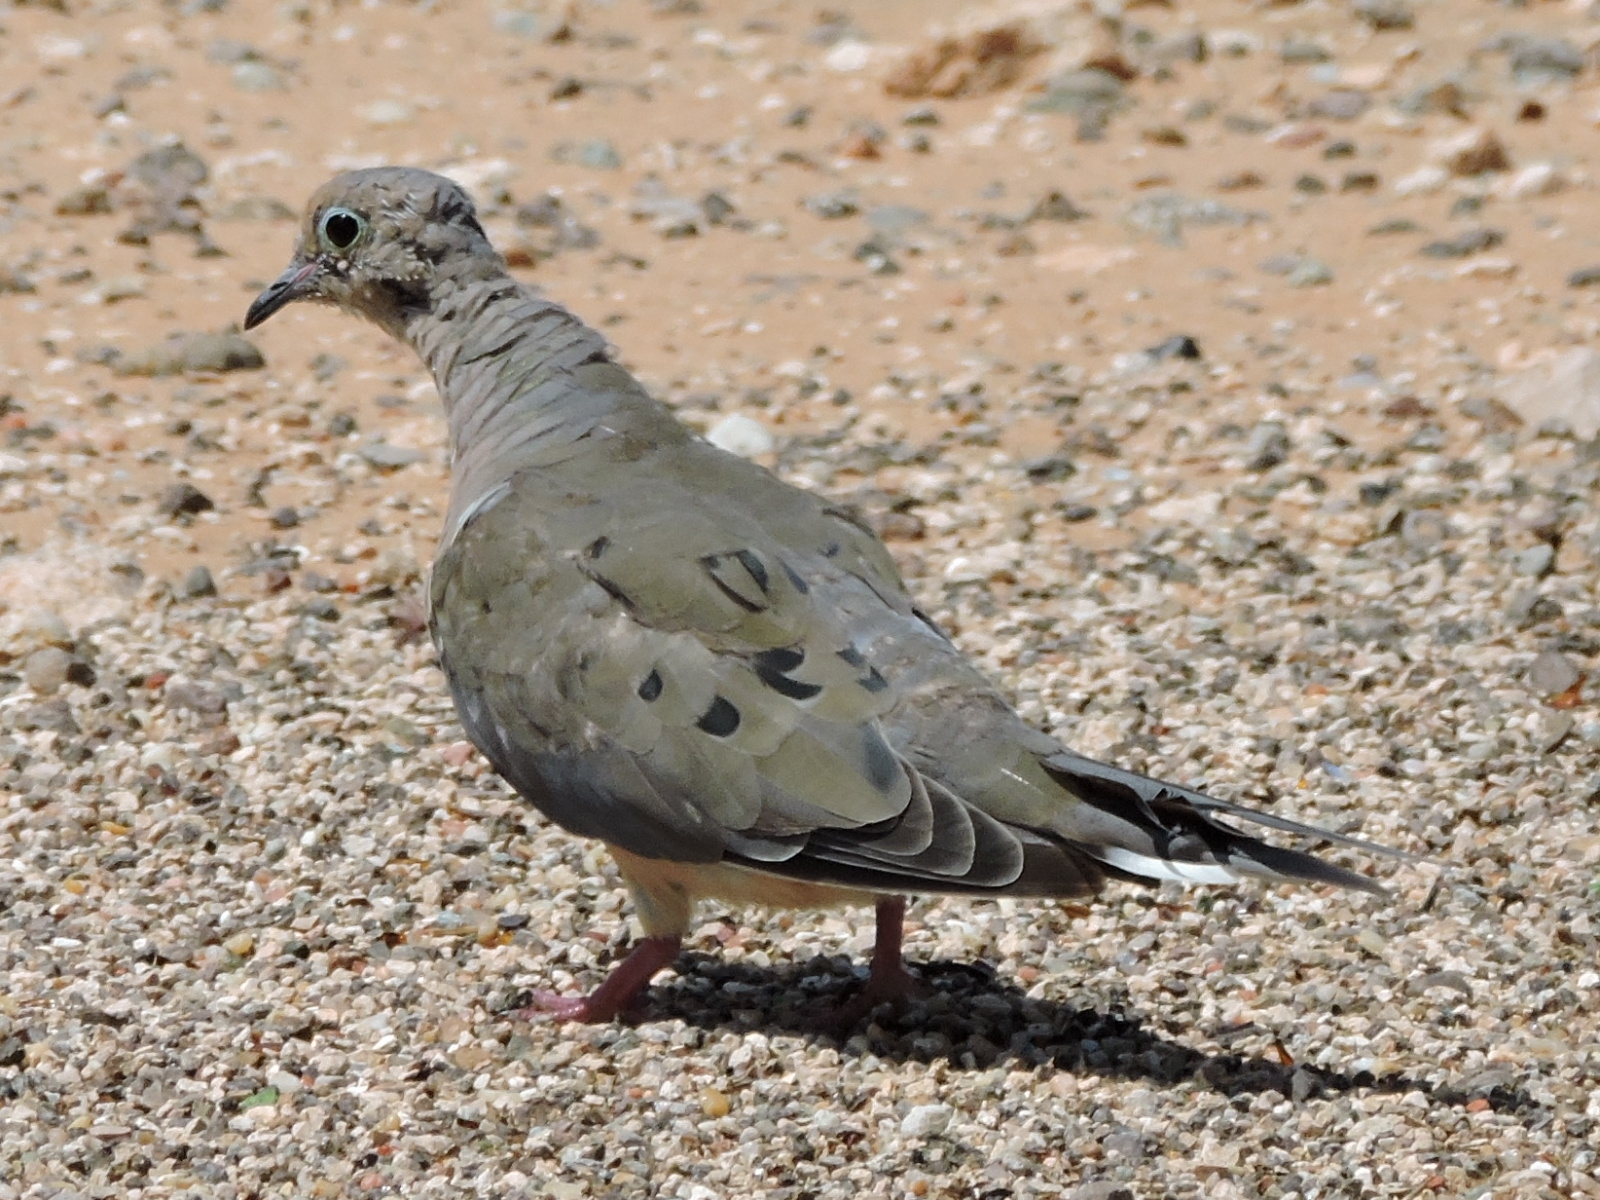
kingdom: Animalia
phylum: Chordata
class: Aves
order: Columbiformes
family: Columbidae
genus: Zenaida
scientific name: Zenaida macroura
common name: Mourning dove
